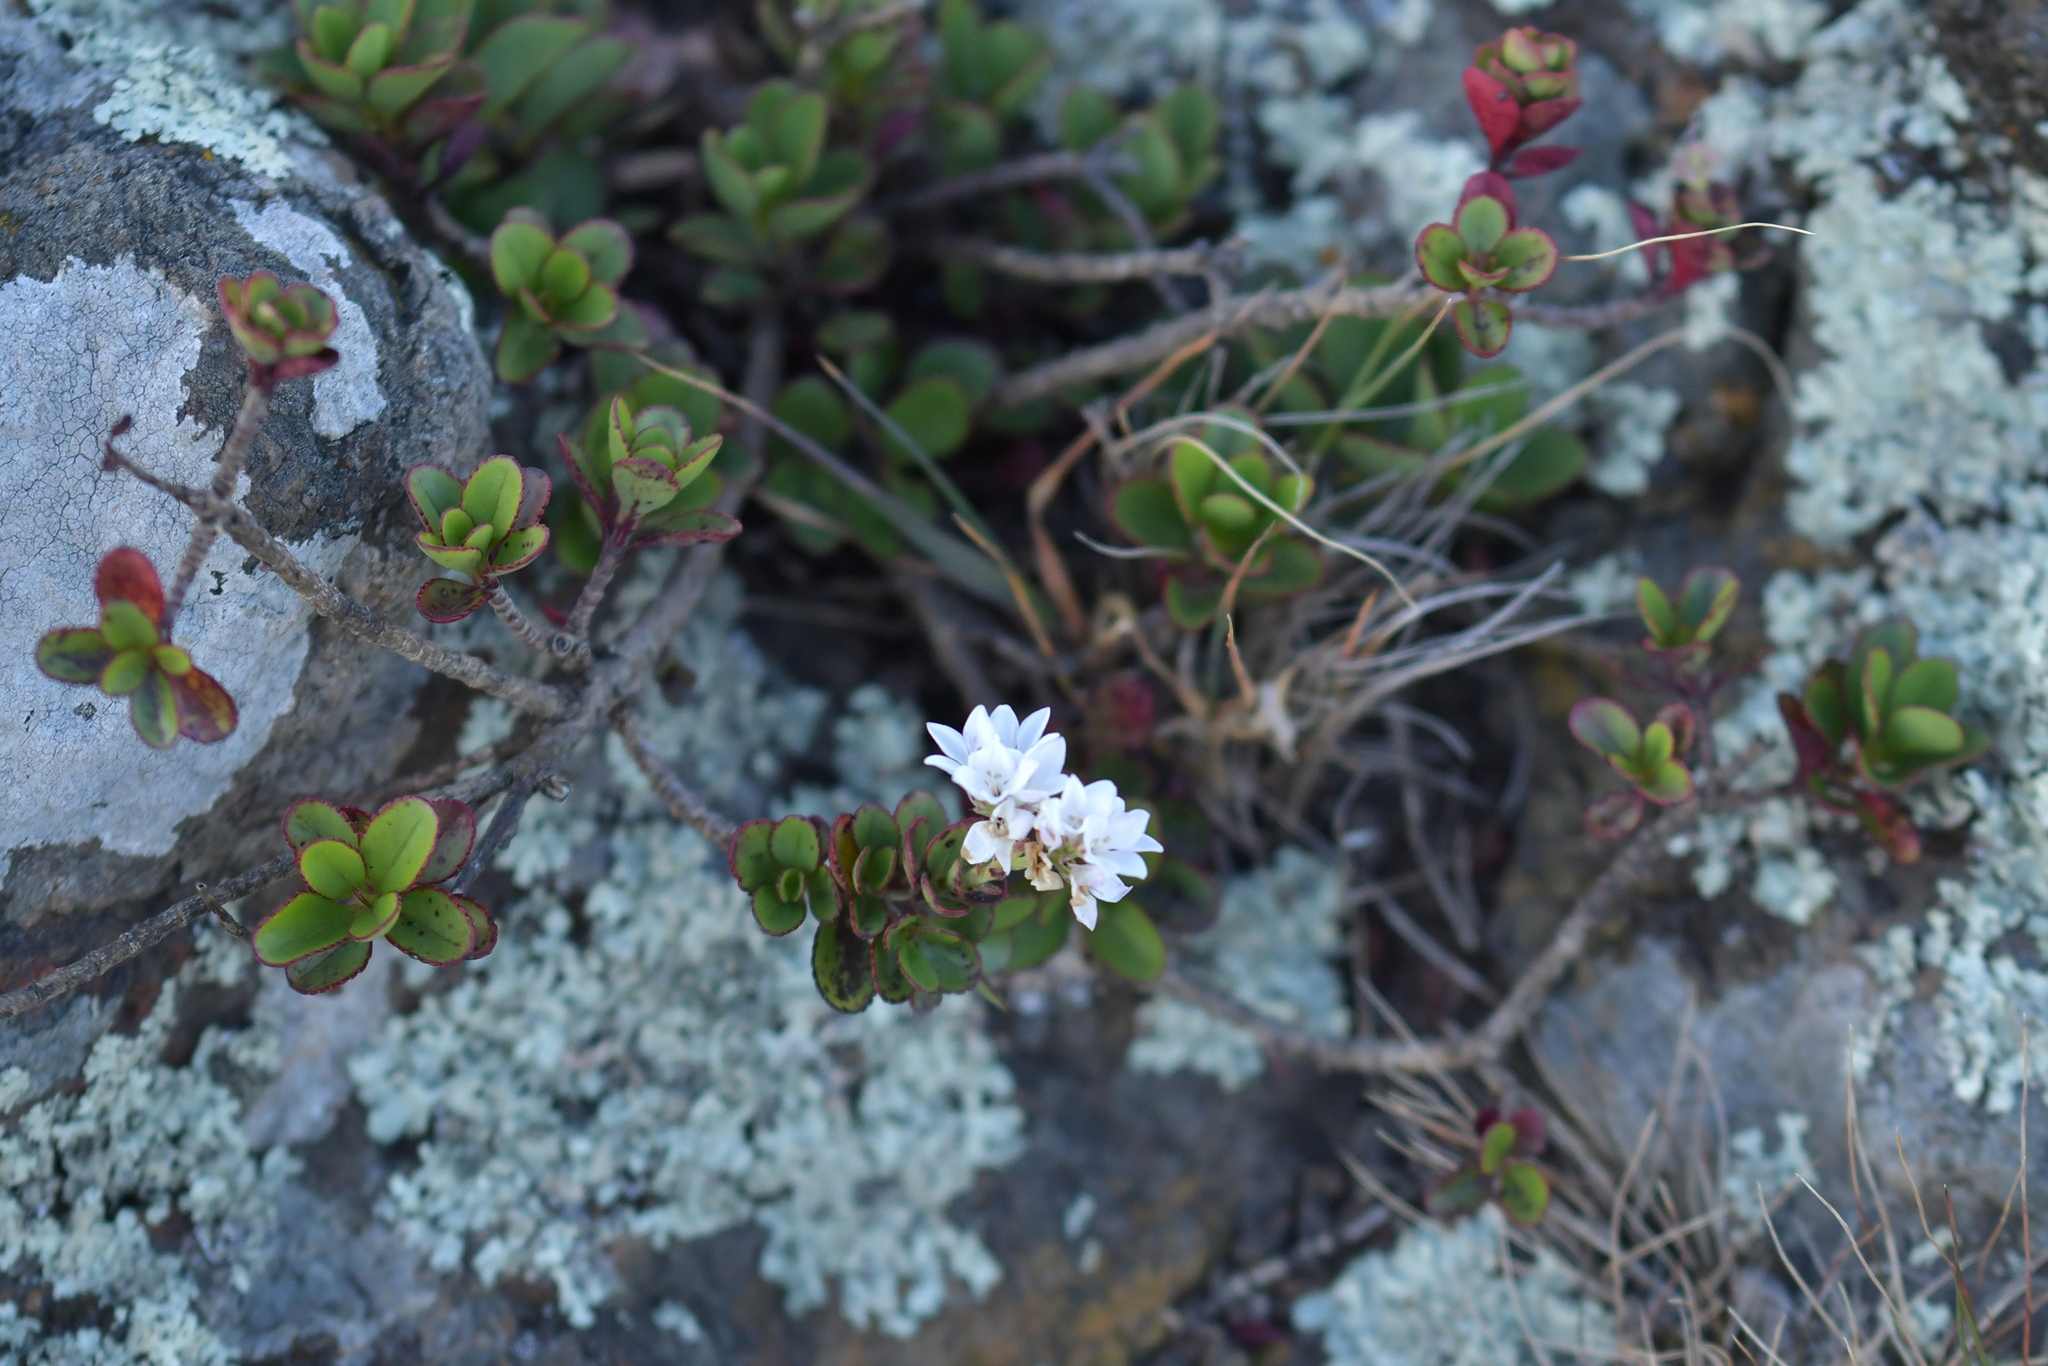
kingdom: Plantae
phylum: Tracheophyta
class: Magnoliopsida
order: Lamiales
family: Plantaginaceae
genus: Veronica
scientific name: Veronica lavaudiana
